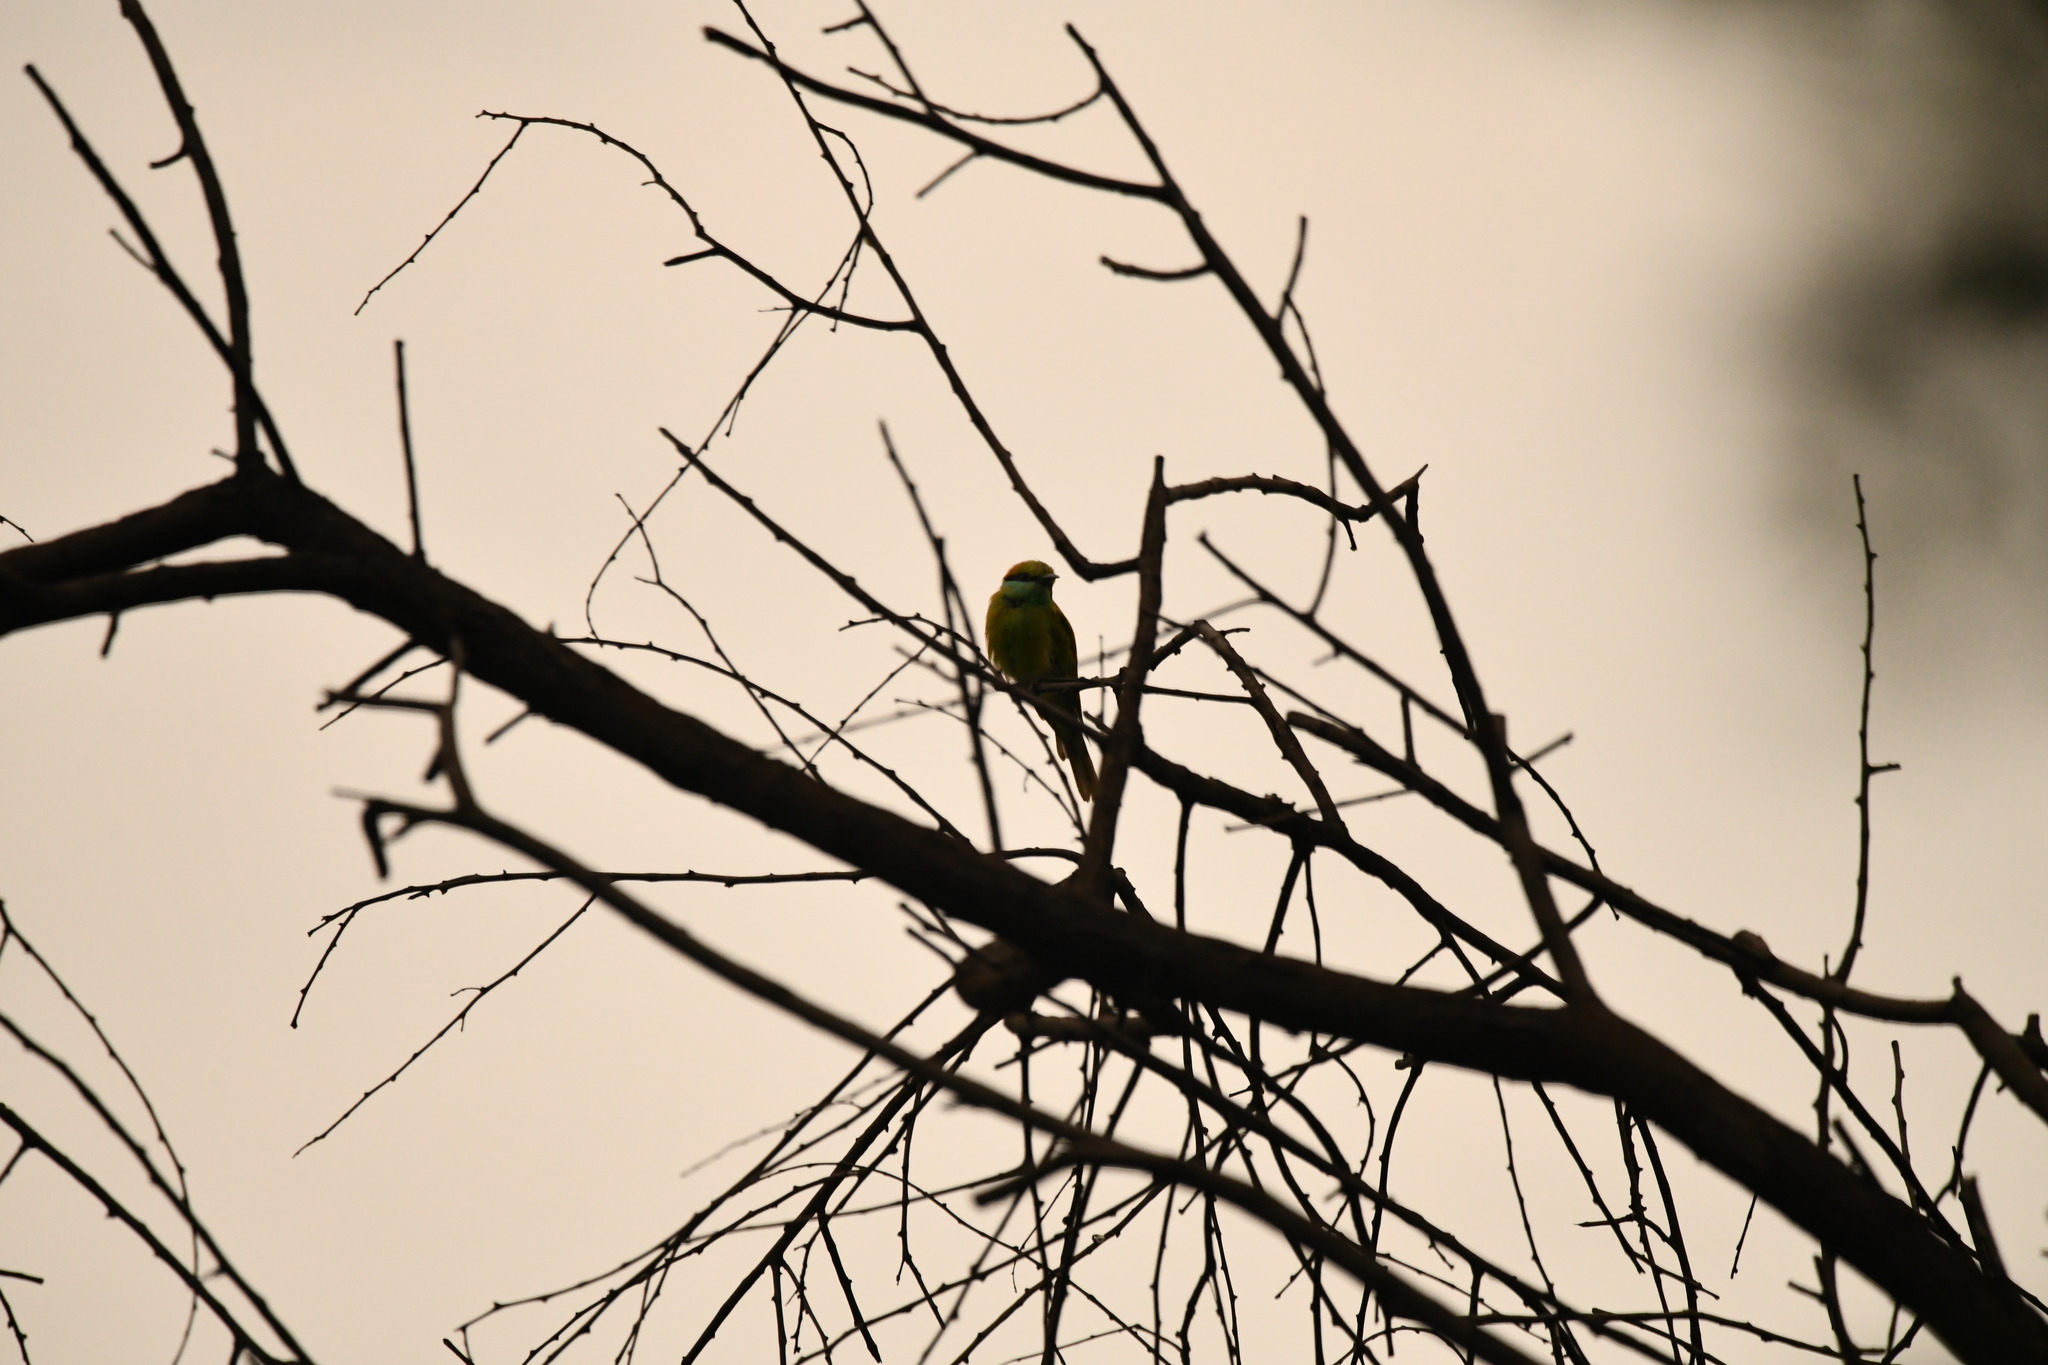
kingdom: Animalia
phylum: Chordata
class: Aves
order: Coraciiformes
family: Meropidae
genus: Merops
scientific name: Merops orientalis
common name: Green bee-eater
